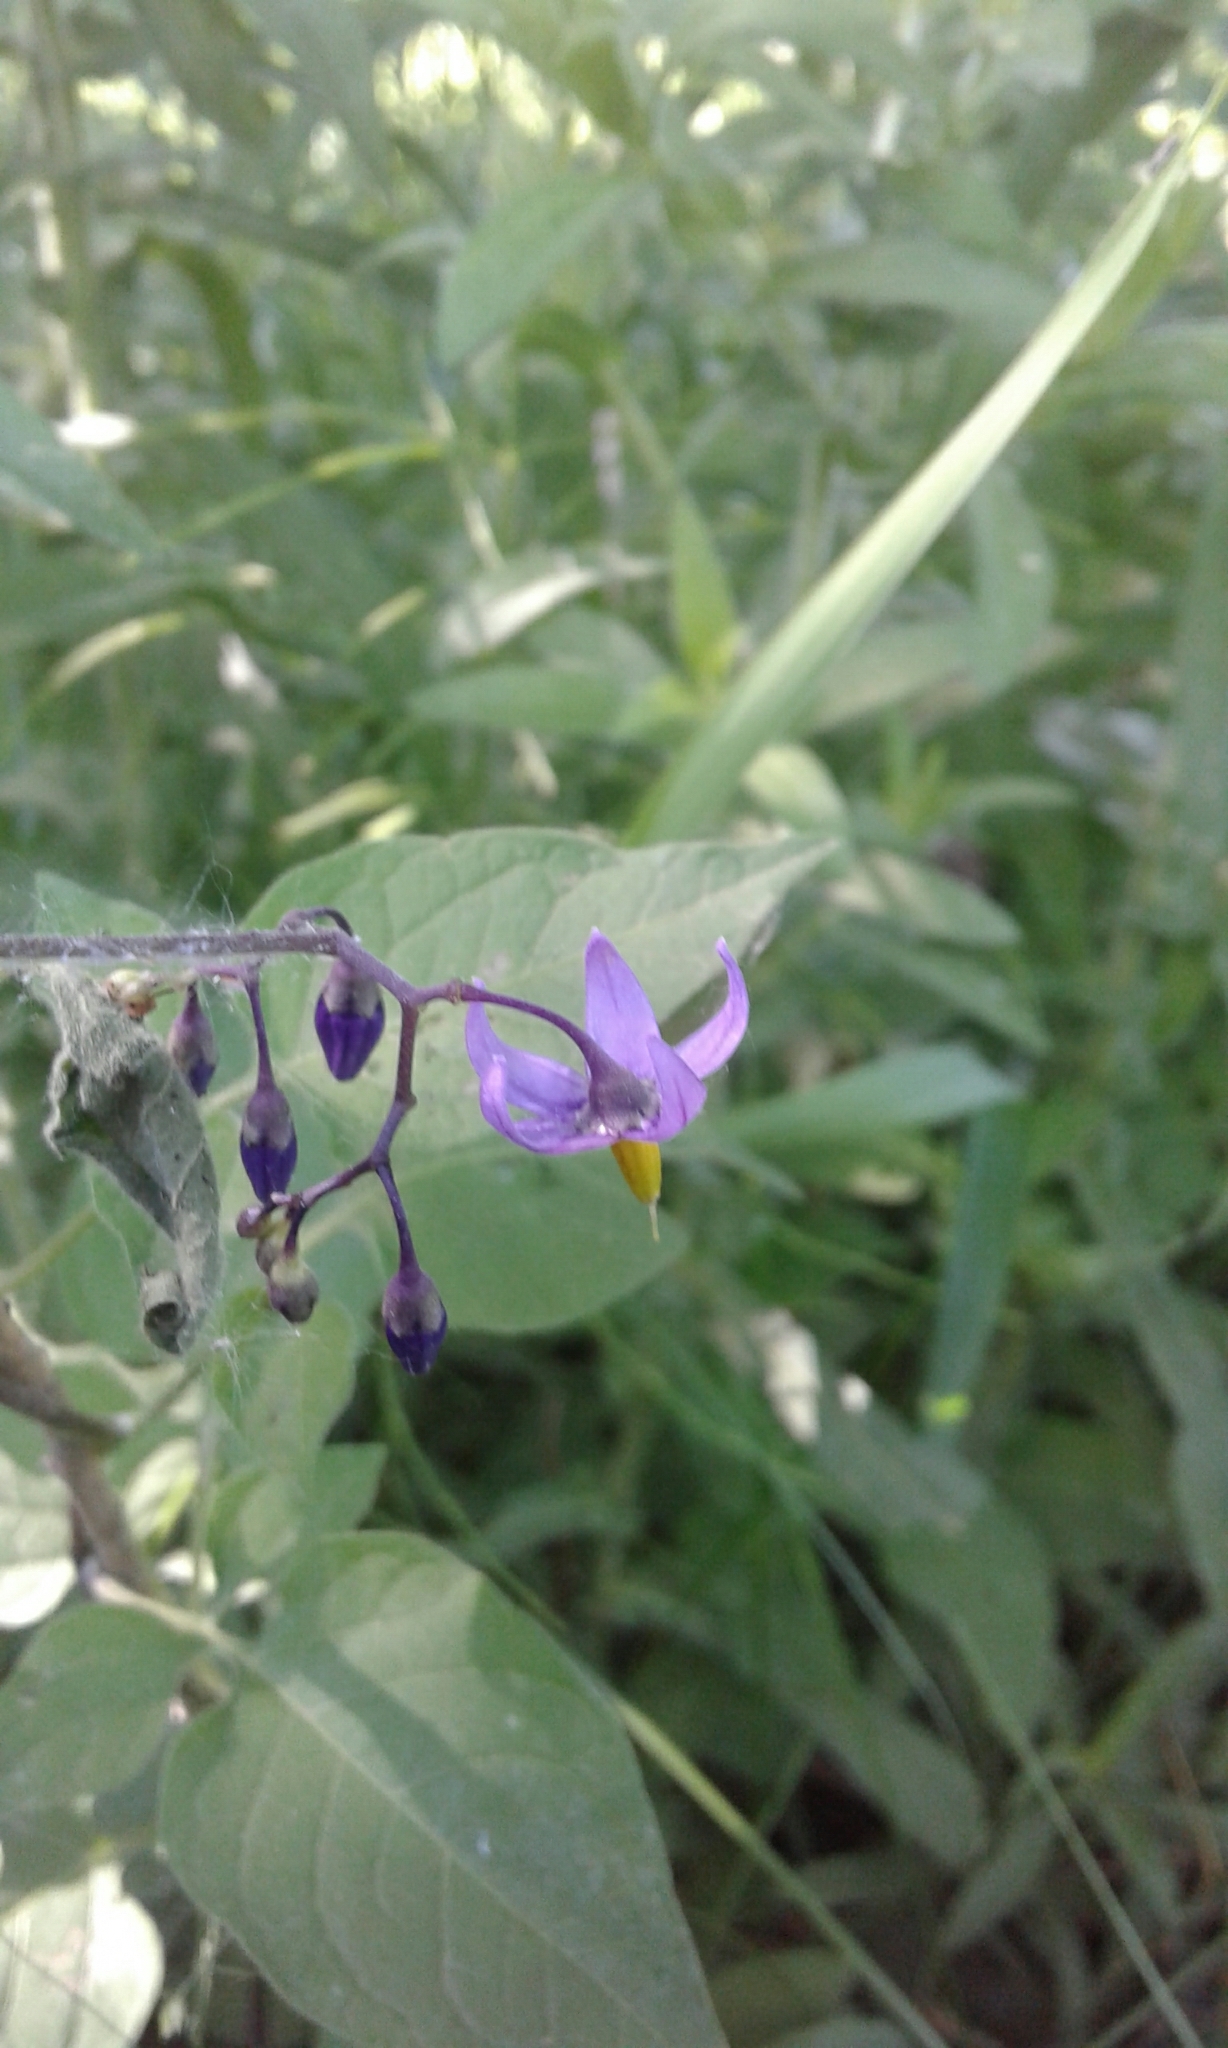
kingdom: Plantae
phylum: Tracheophyta
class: Magnoliopsida
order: Solanales
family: Solanaceae
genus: Solanum
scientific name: Solanum dulcamara
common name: Climbing nightshade
